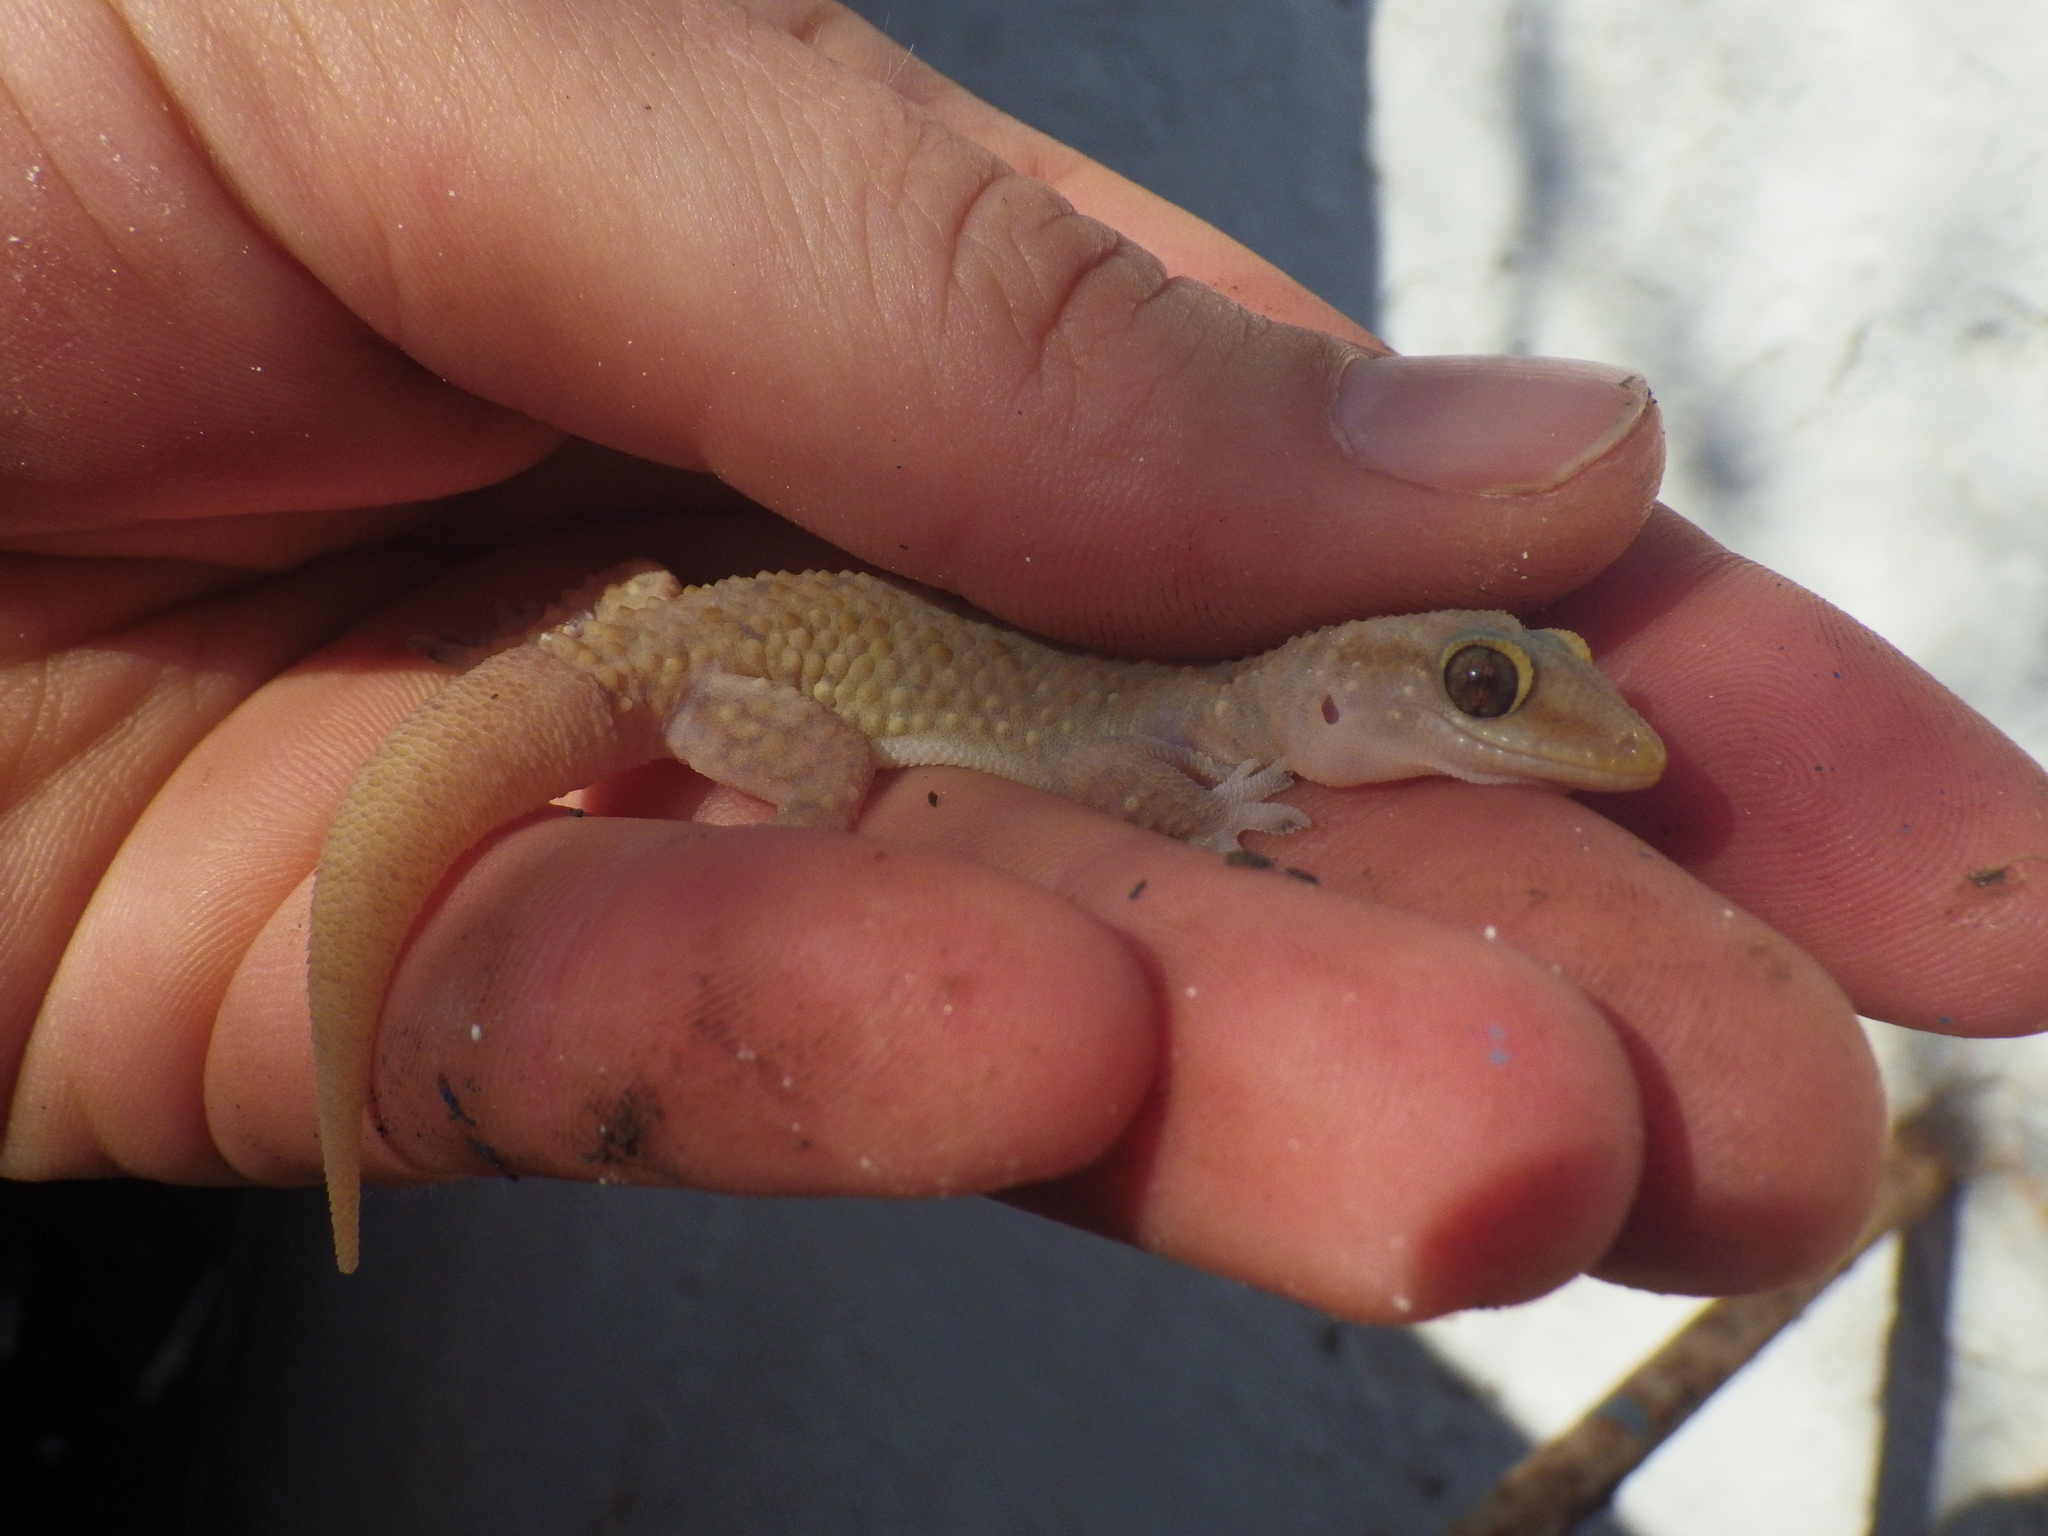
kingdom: Animalia
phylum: Chordata
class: Squamata
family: Gekkonidae
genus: Hemidactylus
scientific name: Hemidactylus turcicus
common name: Turkish gecko
